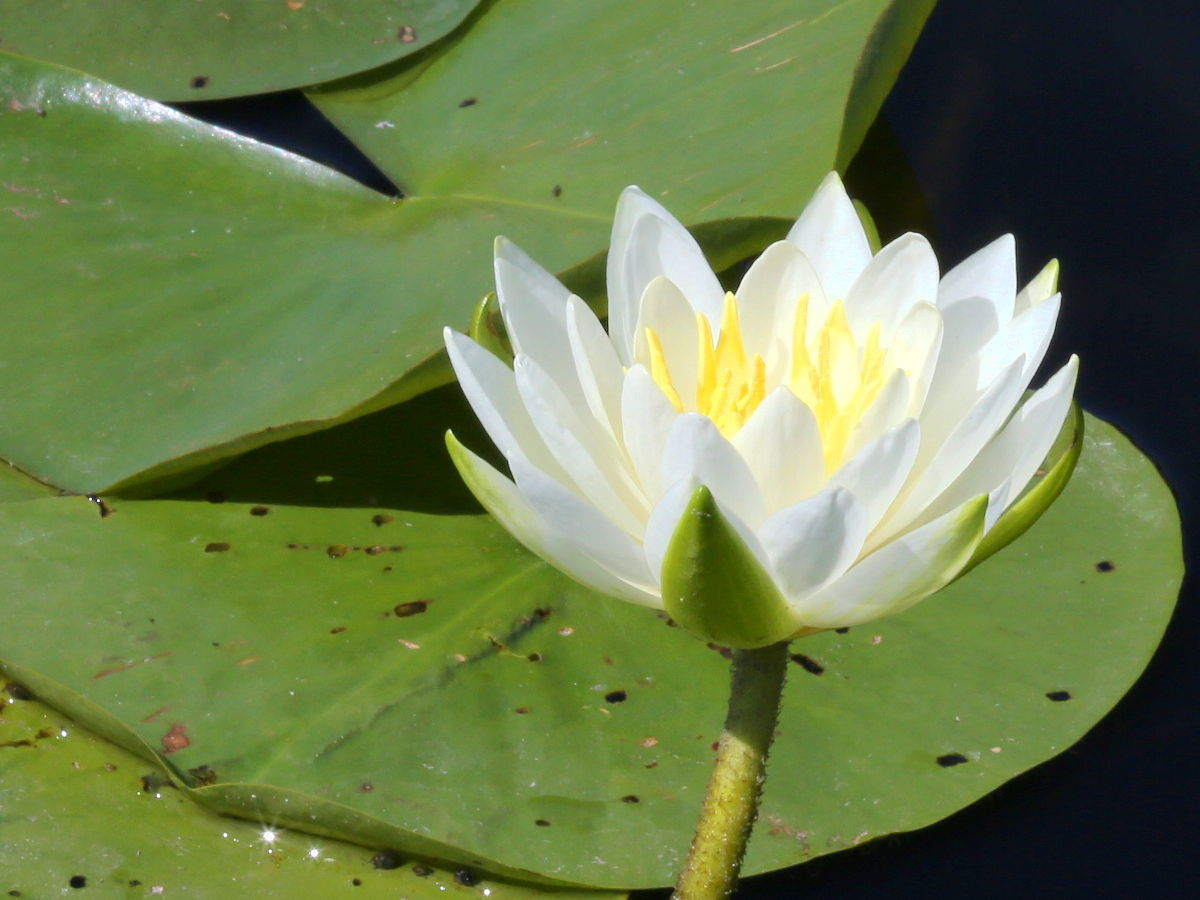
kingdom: Plantae
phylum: Tracheophyta
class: Magnoliopsida
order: Nymphaeales
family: Nymphaeaceae
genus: Nymphaea
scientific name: Nymphaea odorata
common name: Fragrant water-lily
